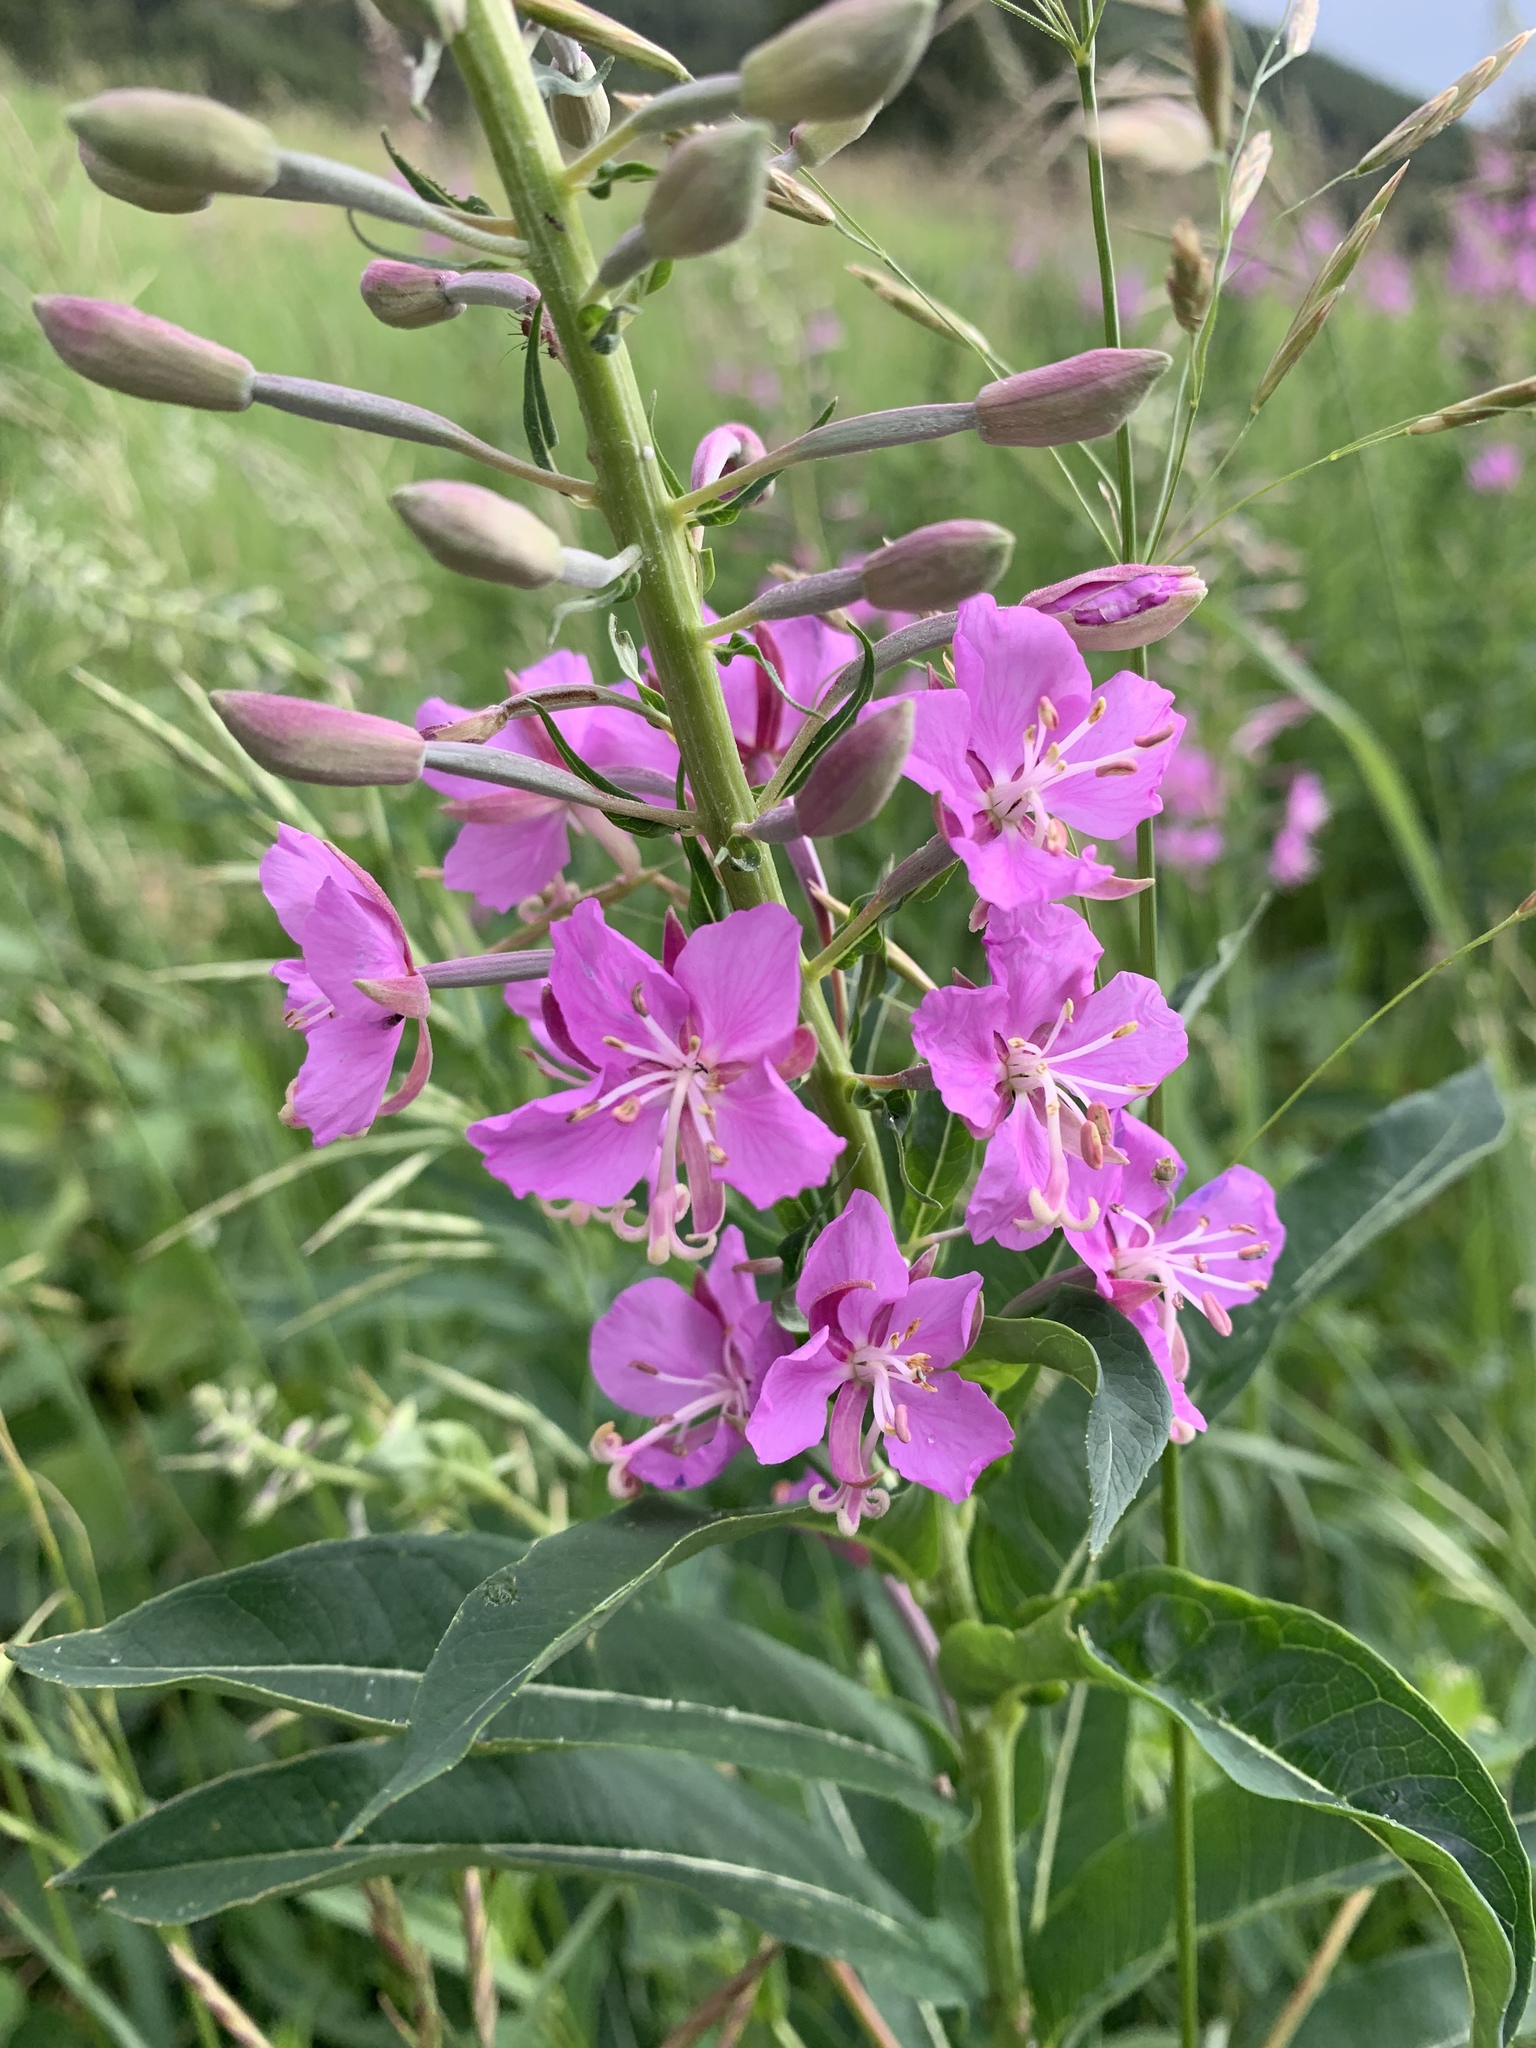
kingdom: Plantae
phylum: Tracheophyta
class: Magnoliopsida
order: Myrtales
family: Onagraceae
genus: Chamaenerion
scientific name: Chamaenerion angustifolium
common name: Fireweed
